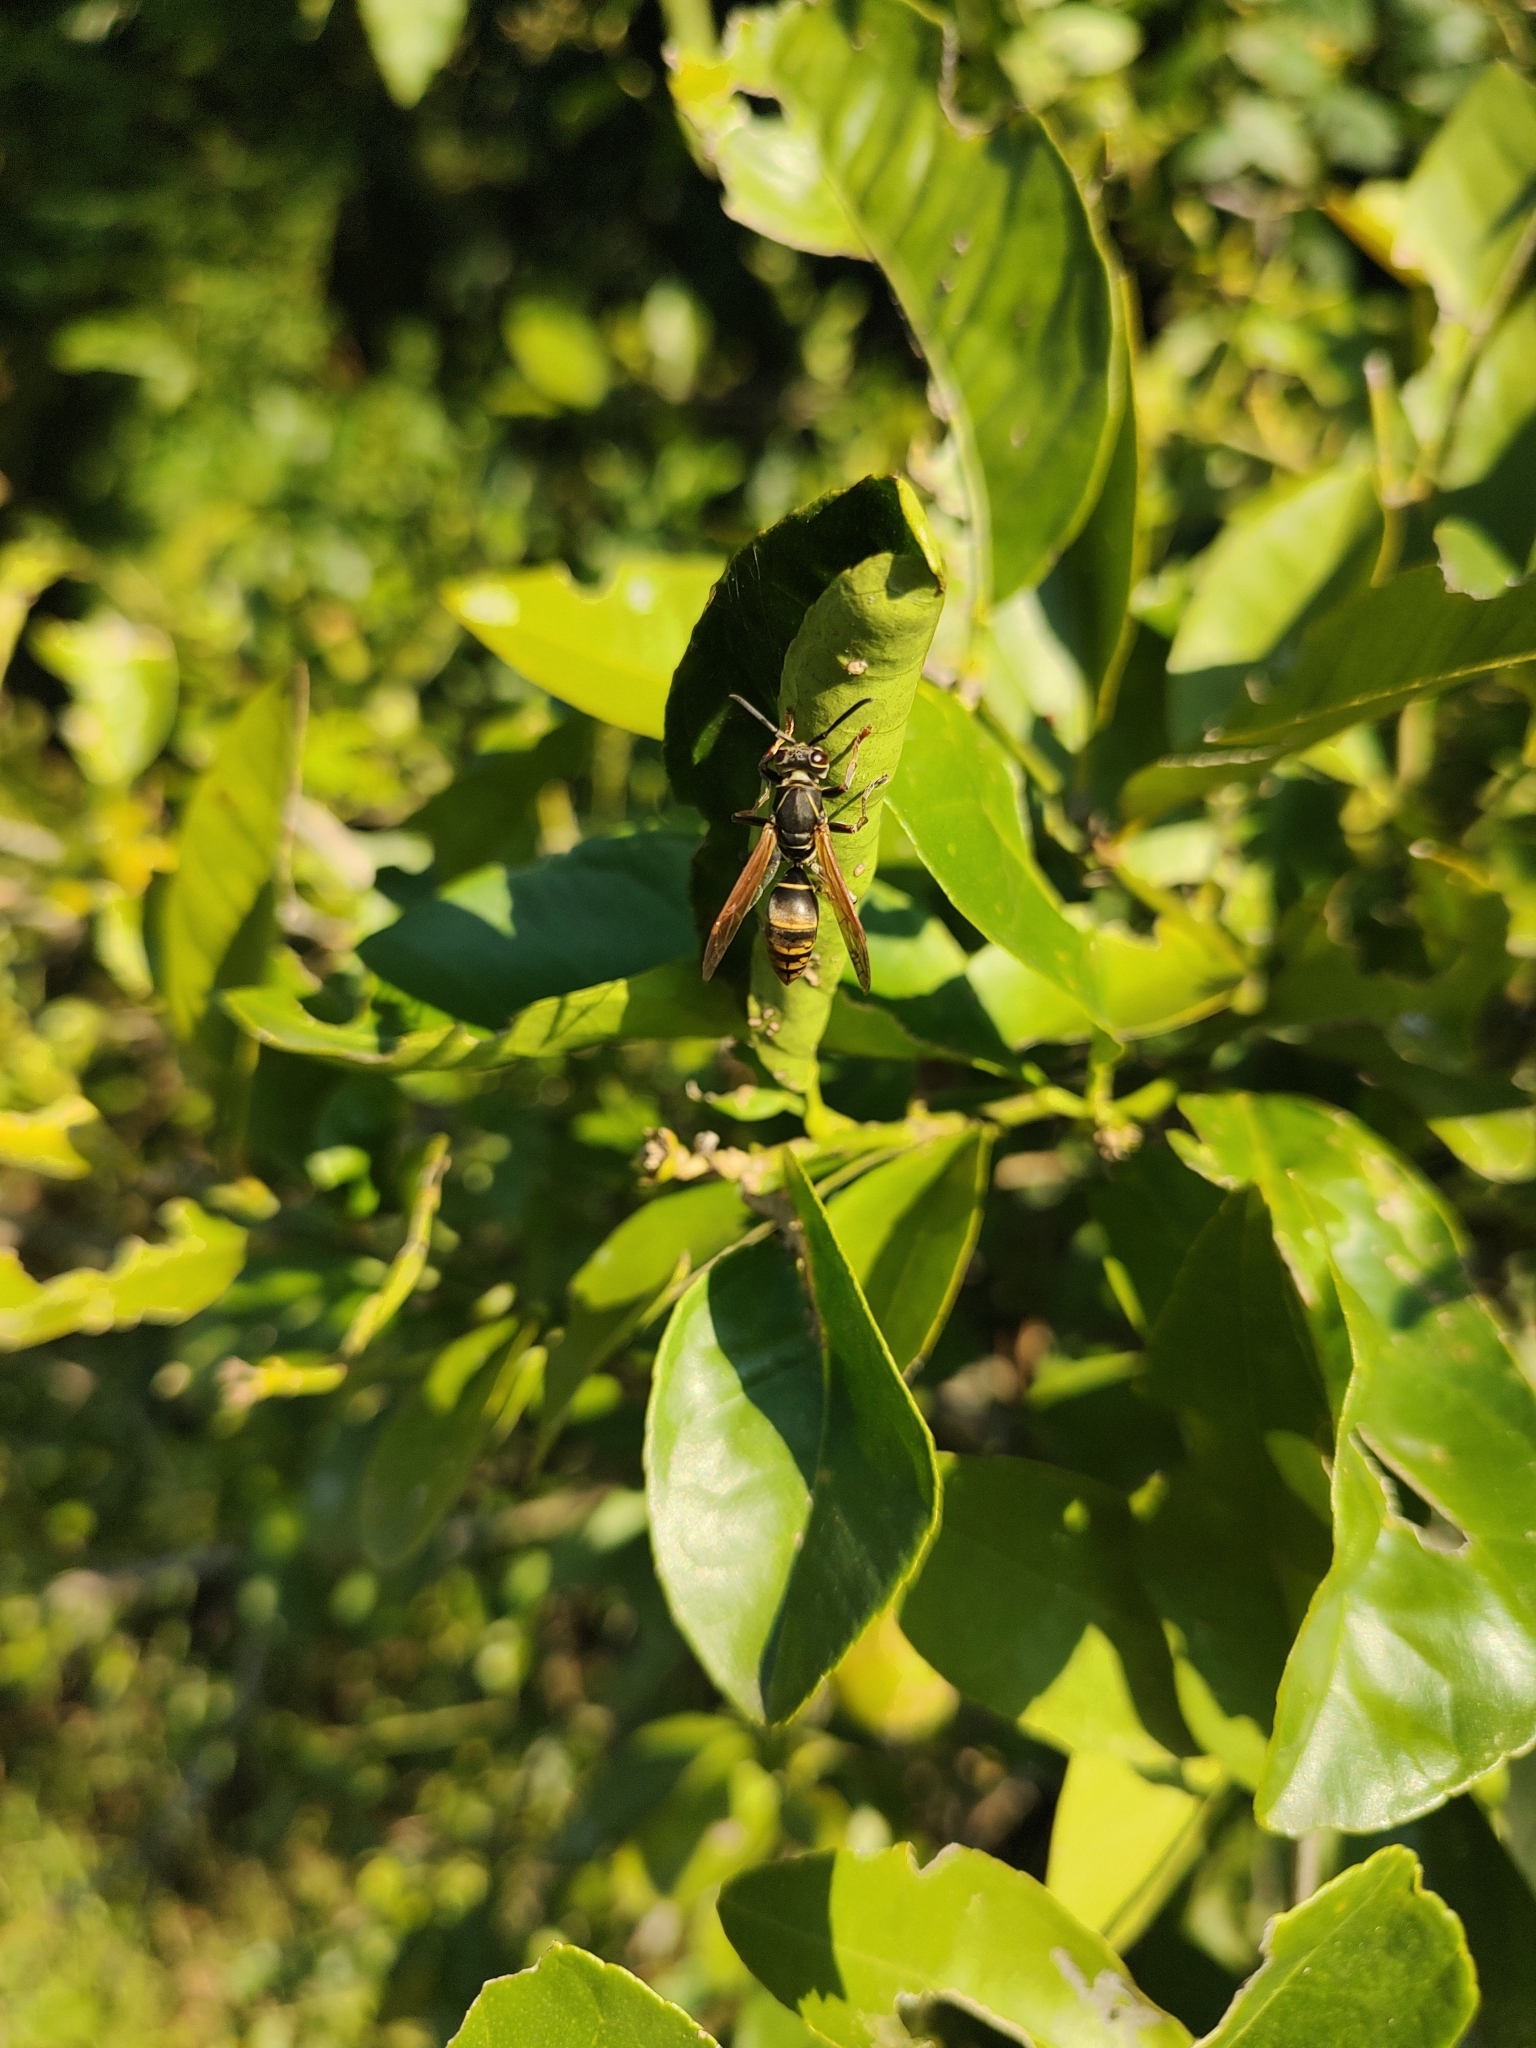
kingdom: Animalia
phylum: Arthropoda
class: Insecta
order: Hymenoptera
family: Eumenidae
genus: Polistes
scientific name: Polistes cinerascens
